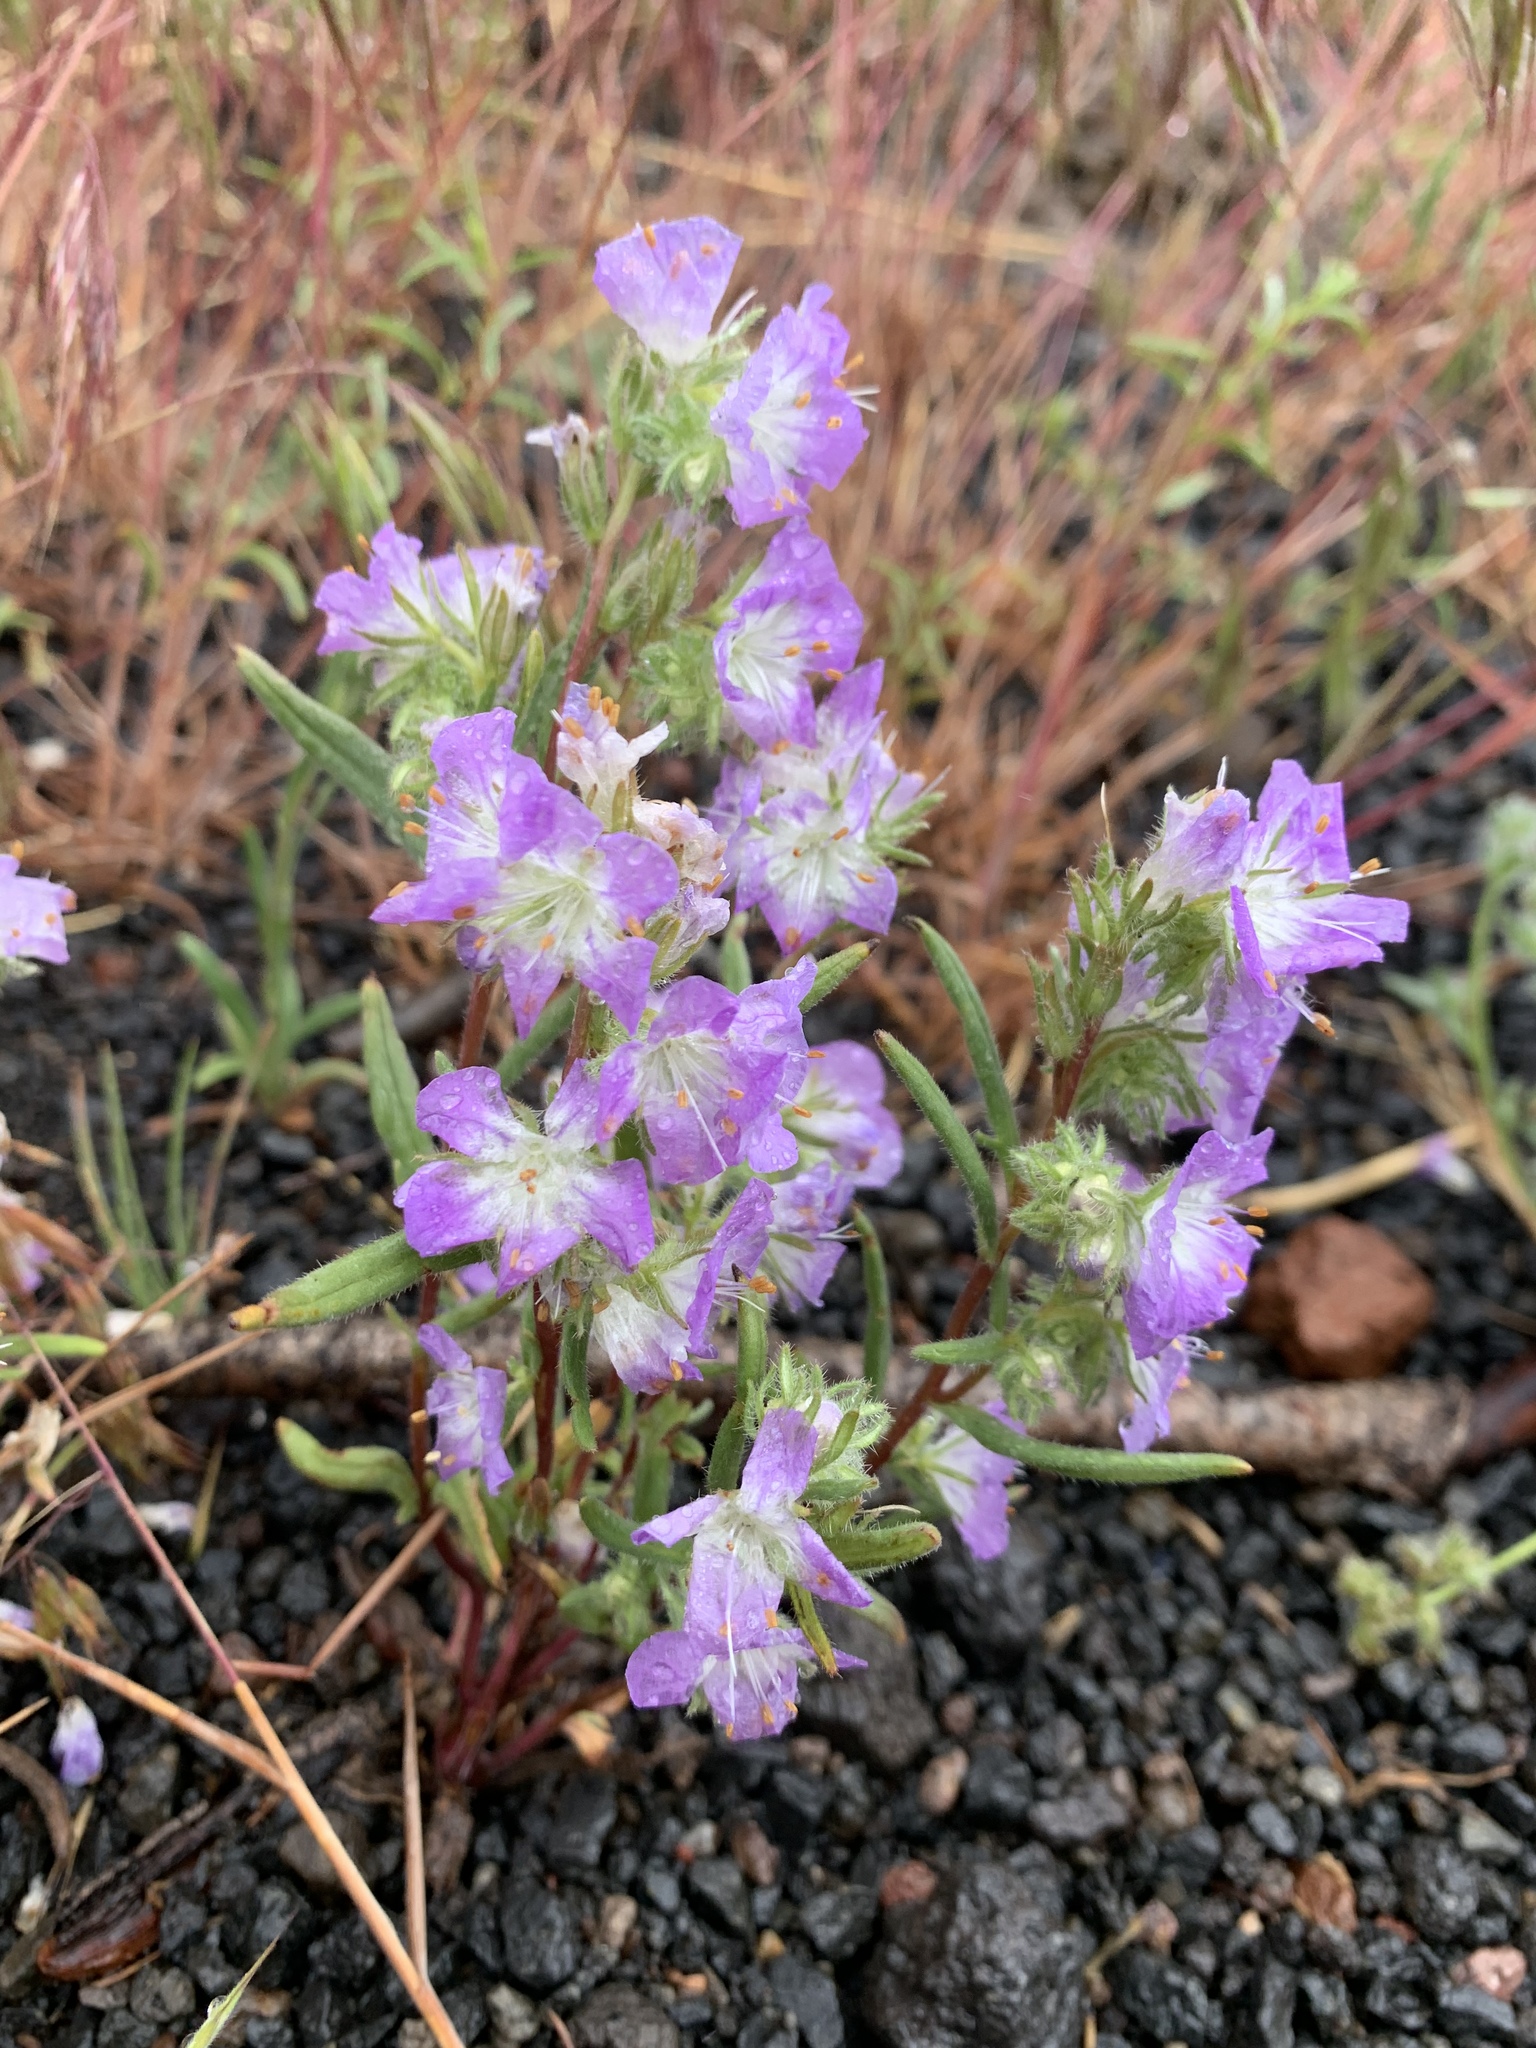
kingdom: Plantae
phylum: Tracheophyta
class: Magnoliopsida
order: Boraginales
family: Hydrophyllaceae
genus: Phacelia
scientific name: Phacelia linearis
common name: Linear-leaved phacelia
